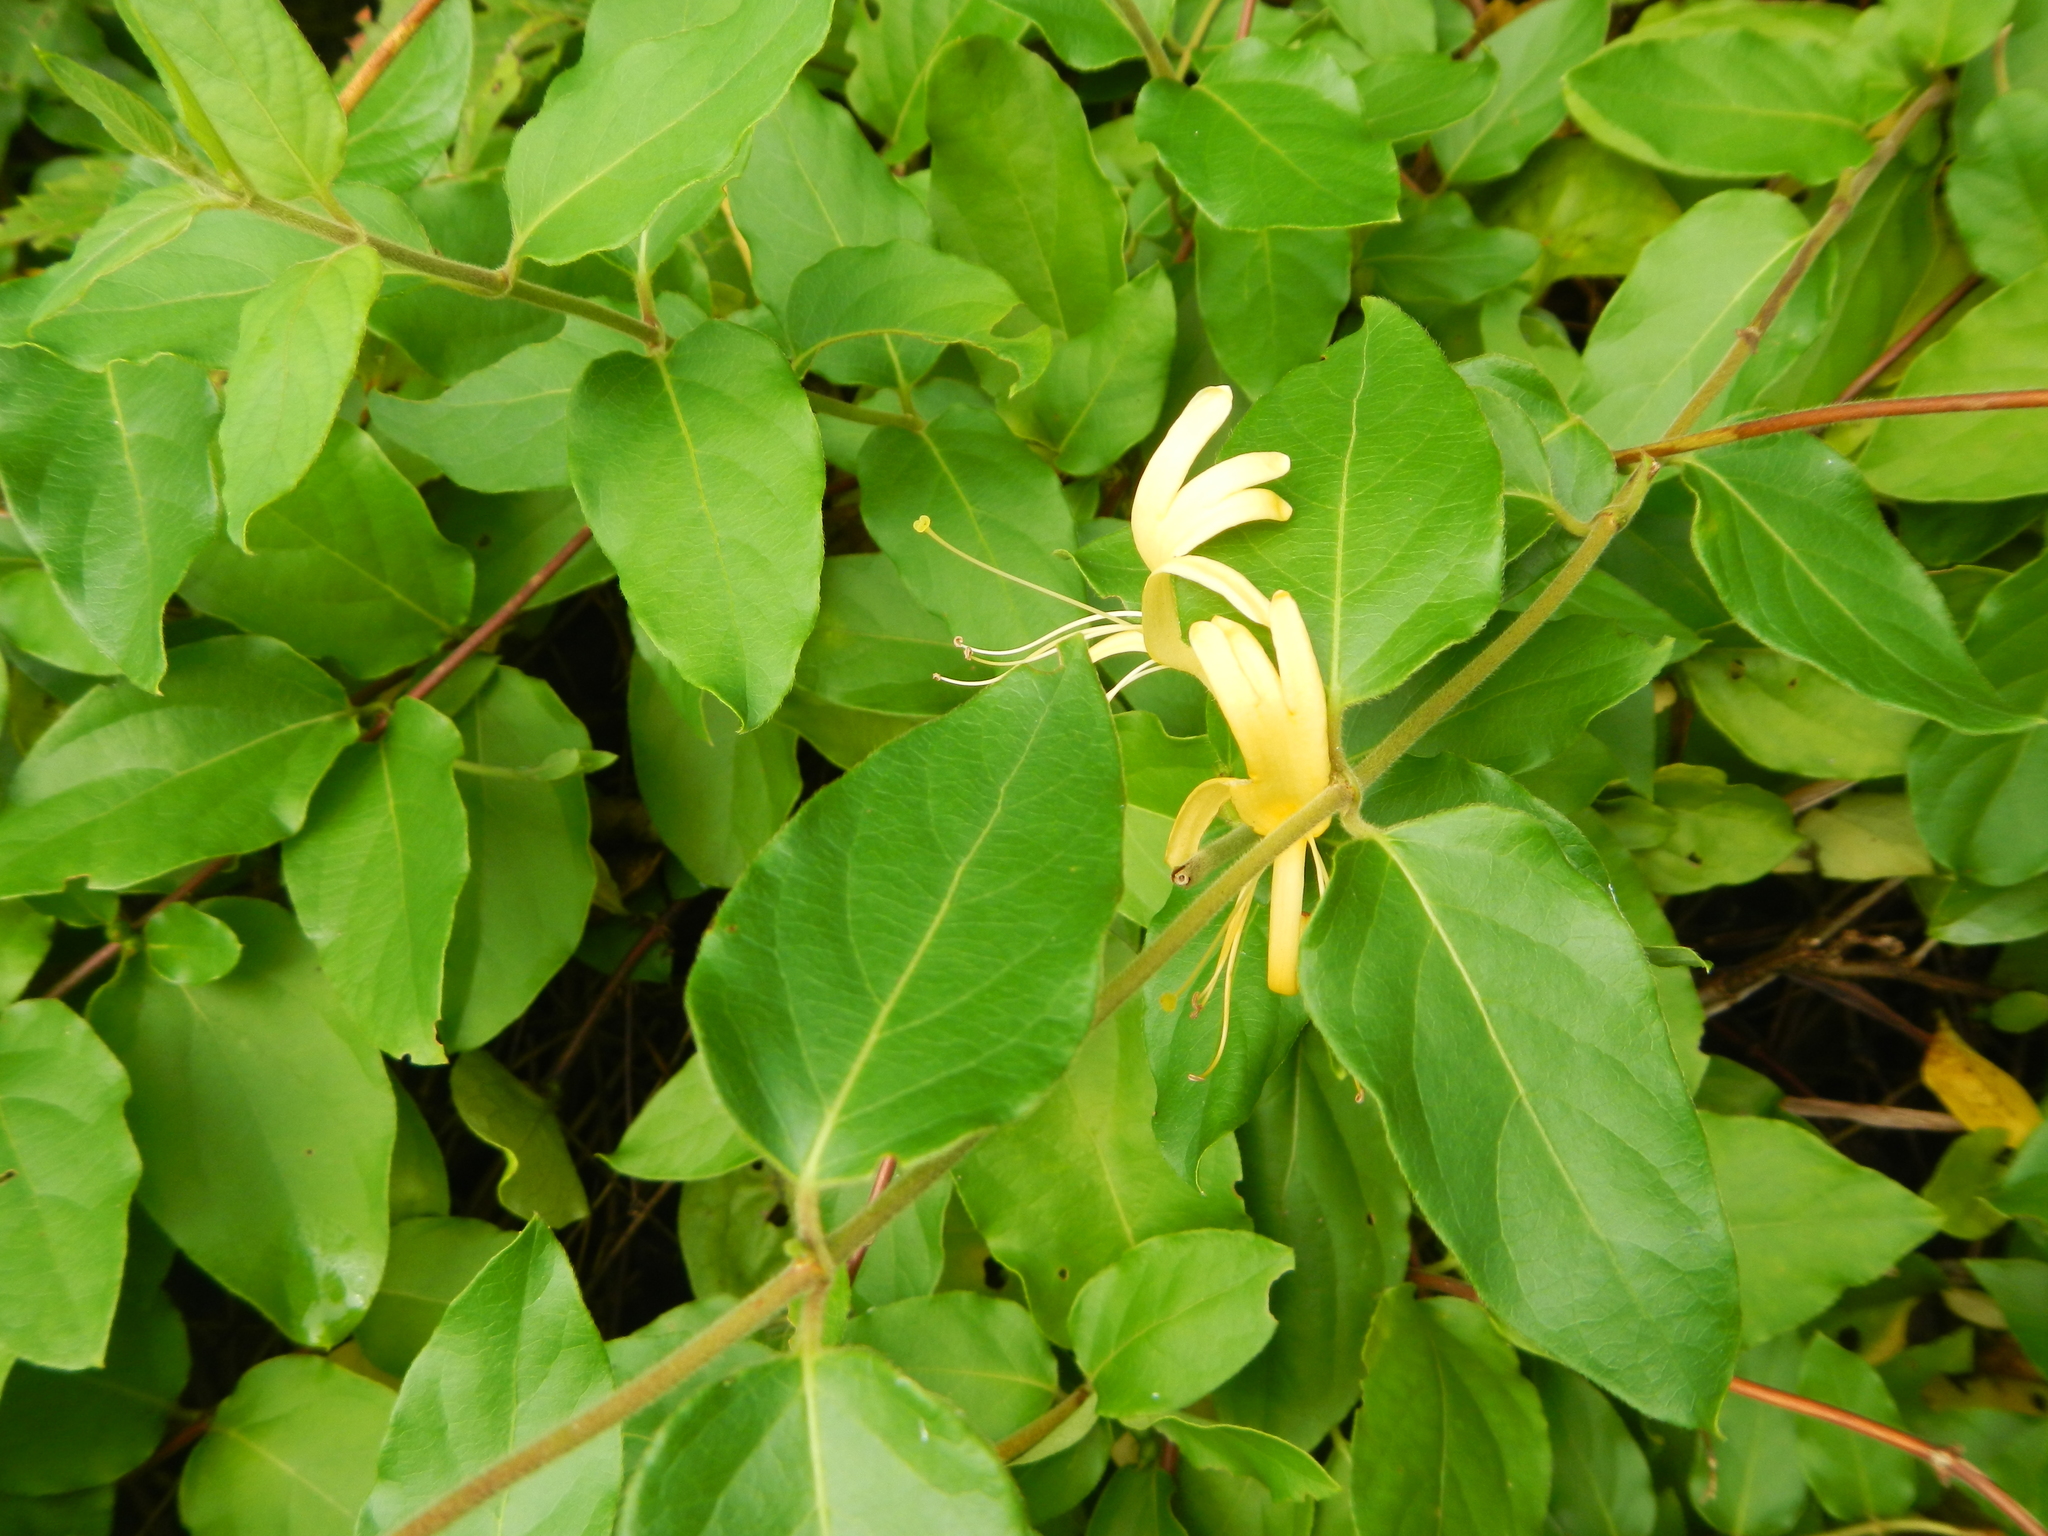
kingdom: Plantae
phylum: Tracheophyta
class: Magnoliopsida
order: Dipsacales
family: Caprifoliaceae
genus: Lonicera
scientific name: Lonicera japonica
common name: Japanese honeysuckle
